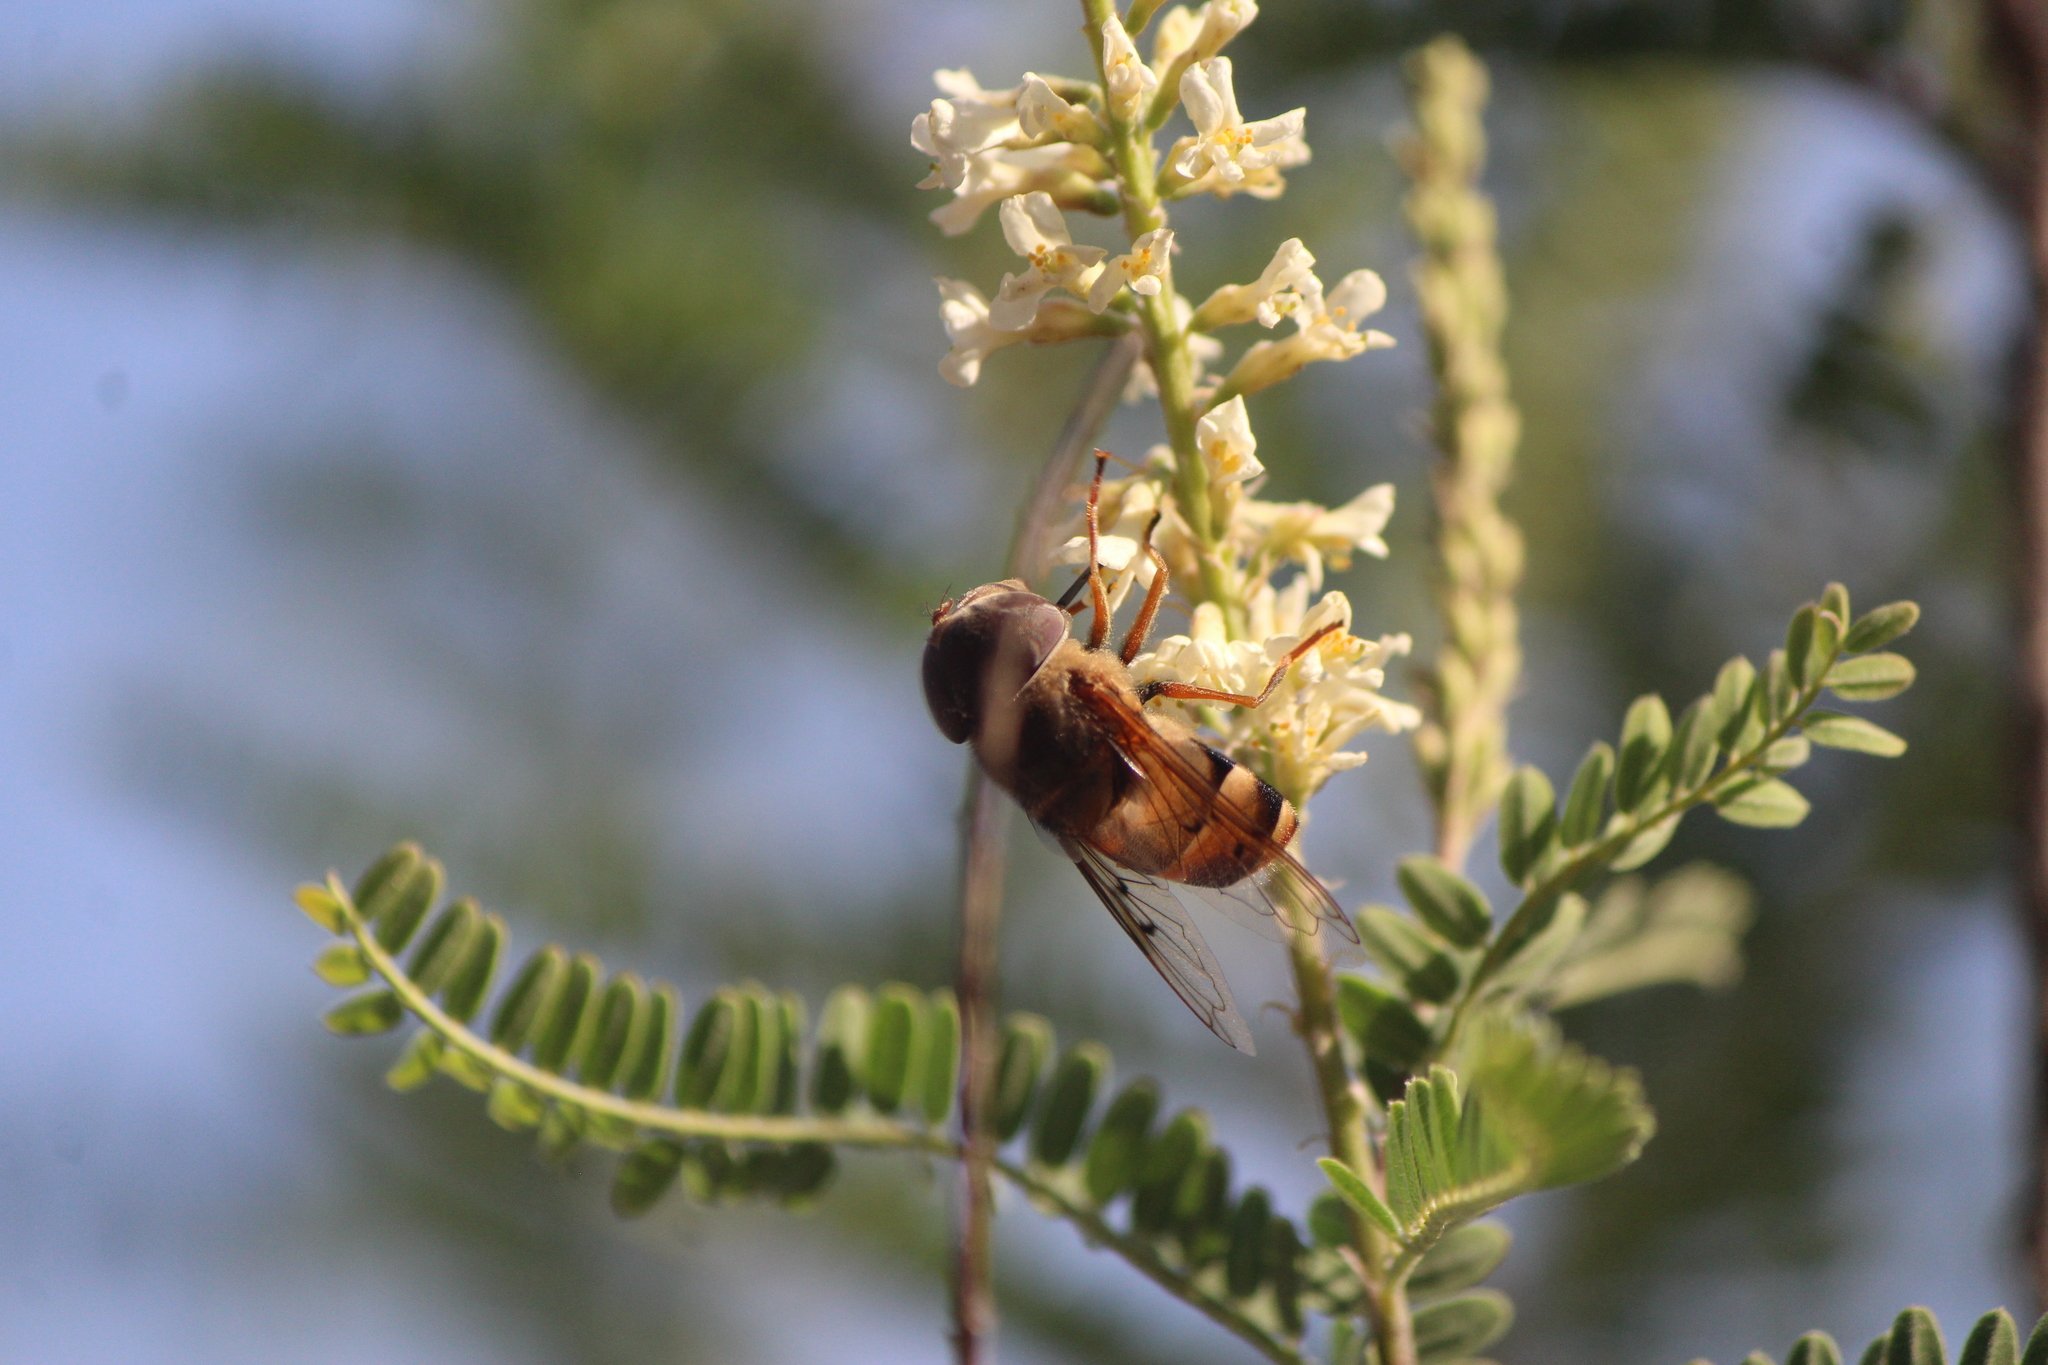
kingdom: Animalia
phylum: Arthropoda
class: Insecta
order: Diptera
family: Syrphidae
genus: Copestylum
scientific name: Copestylum macrocephalum
